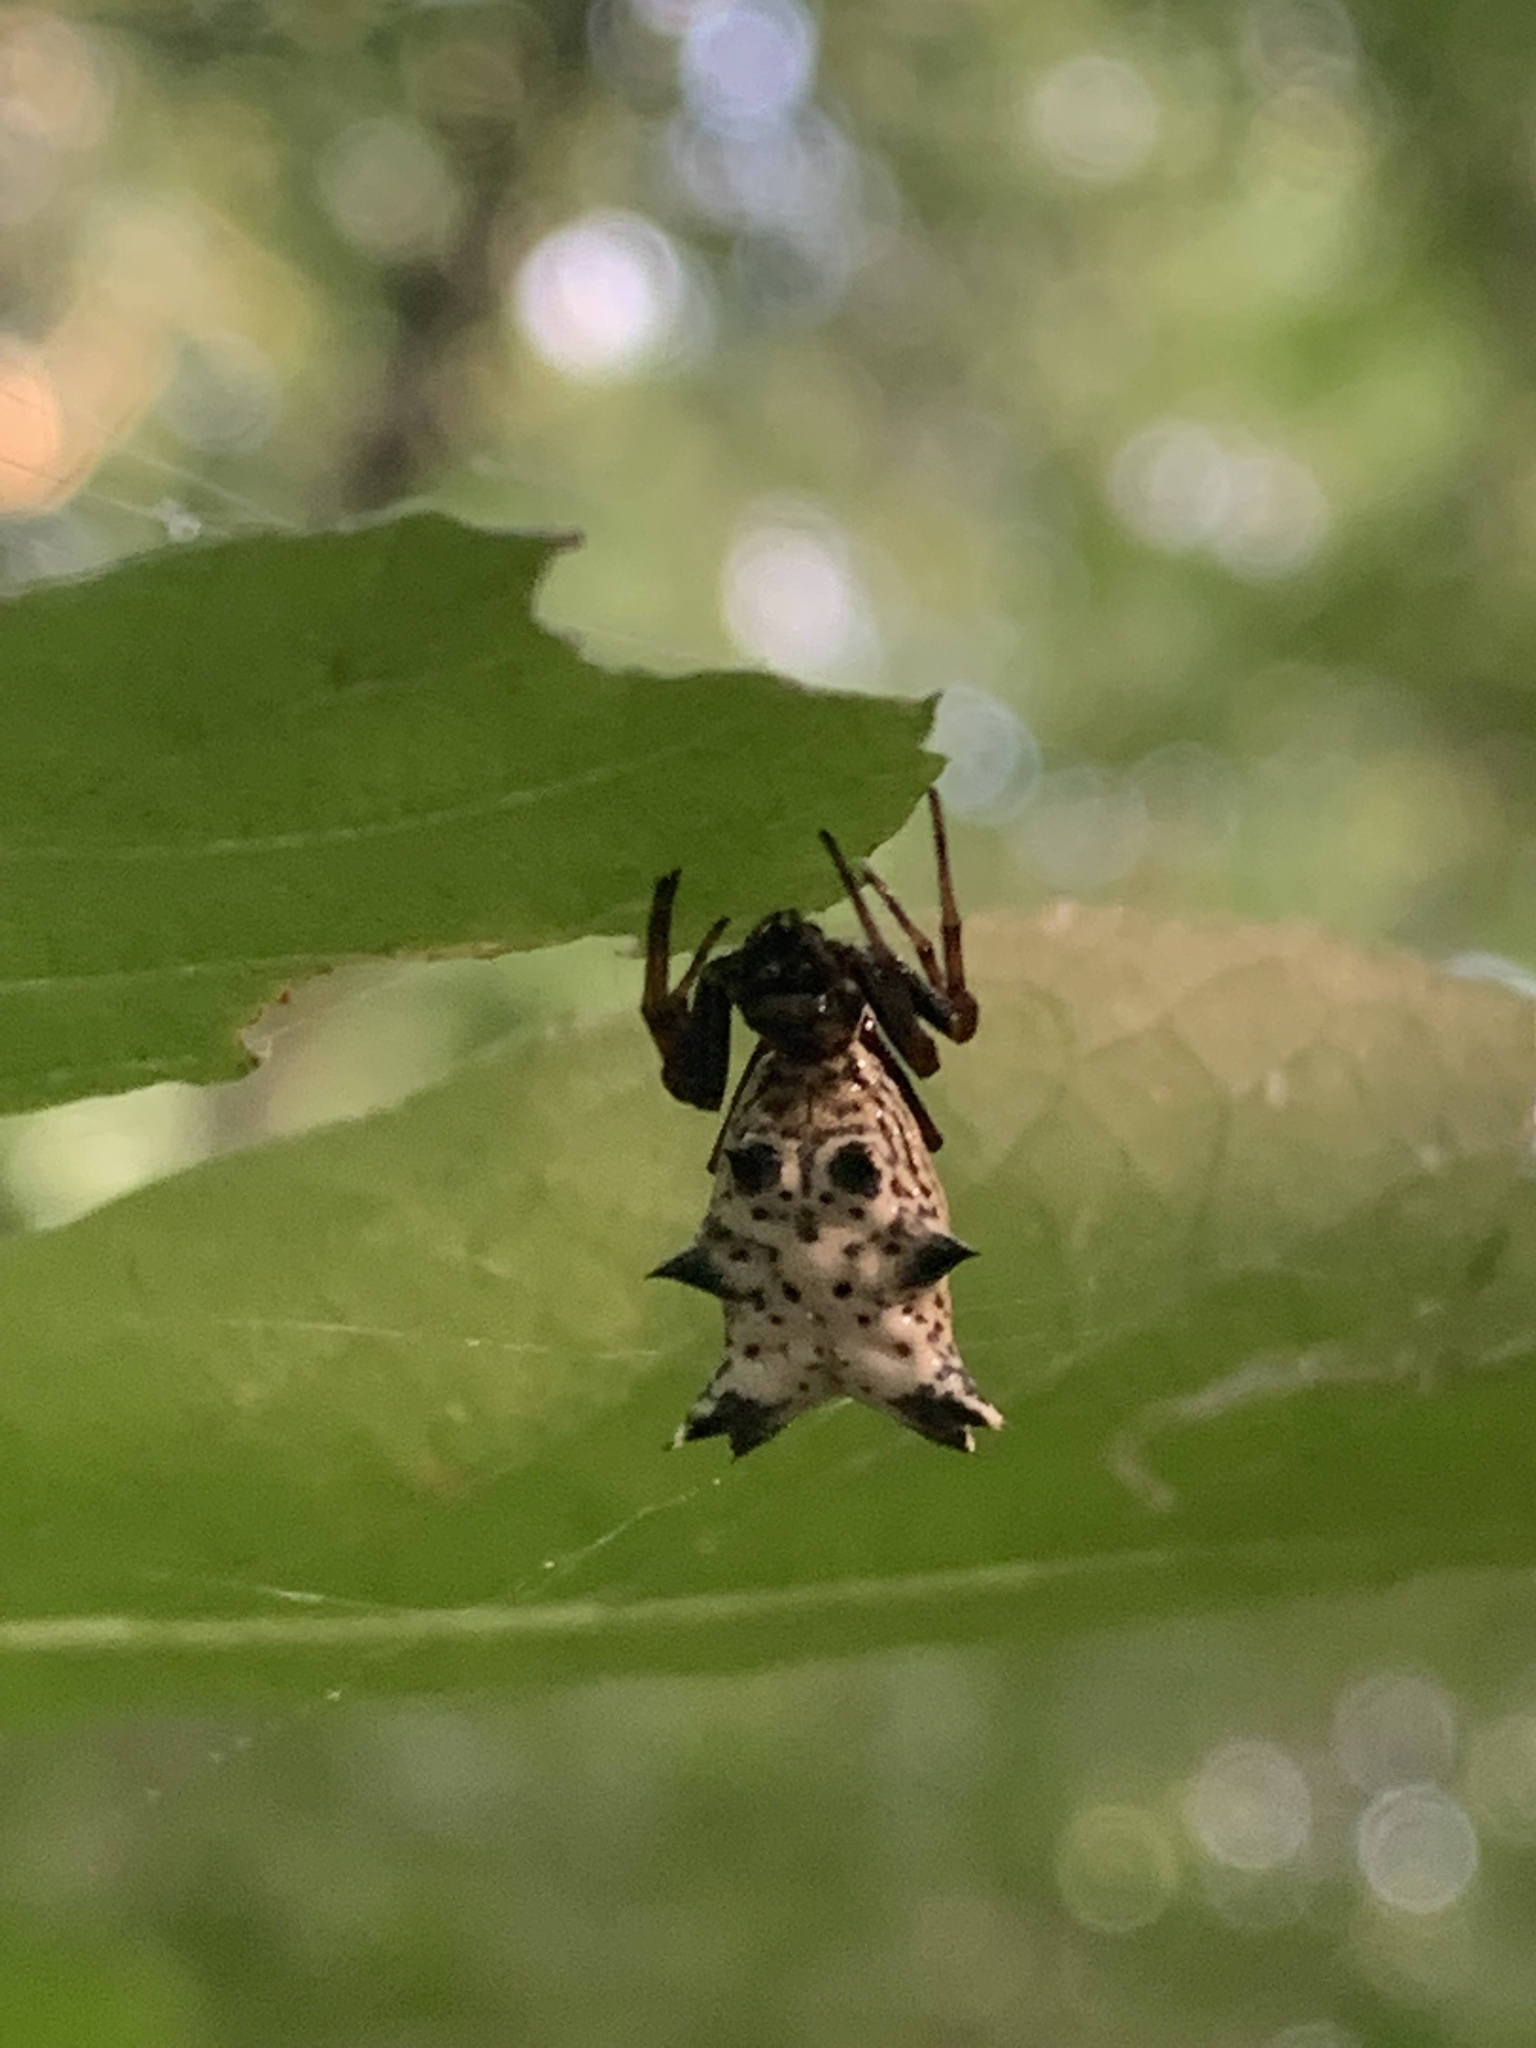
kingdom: Animalia
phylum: Arthropoda
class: Arachnida
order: Araneae
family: Araneidae
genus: Micrathena
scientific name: Micrathena gracilis
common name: Orb weavers
